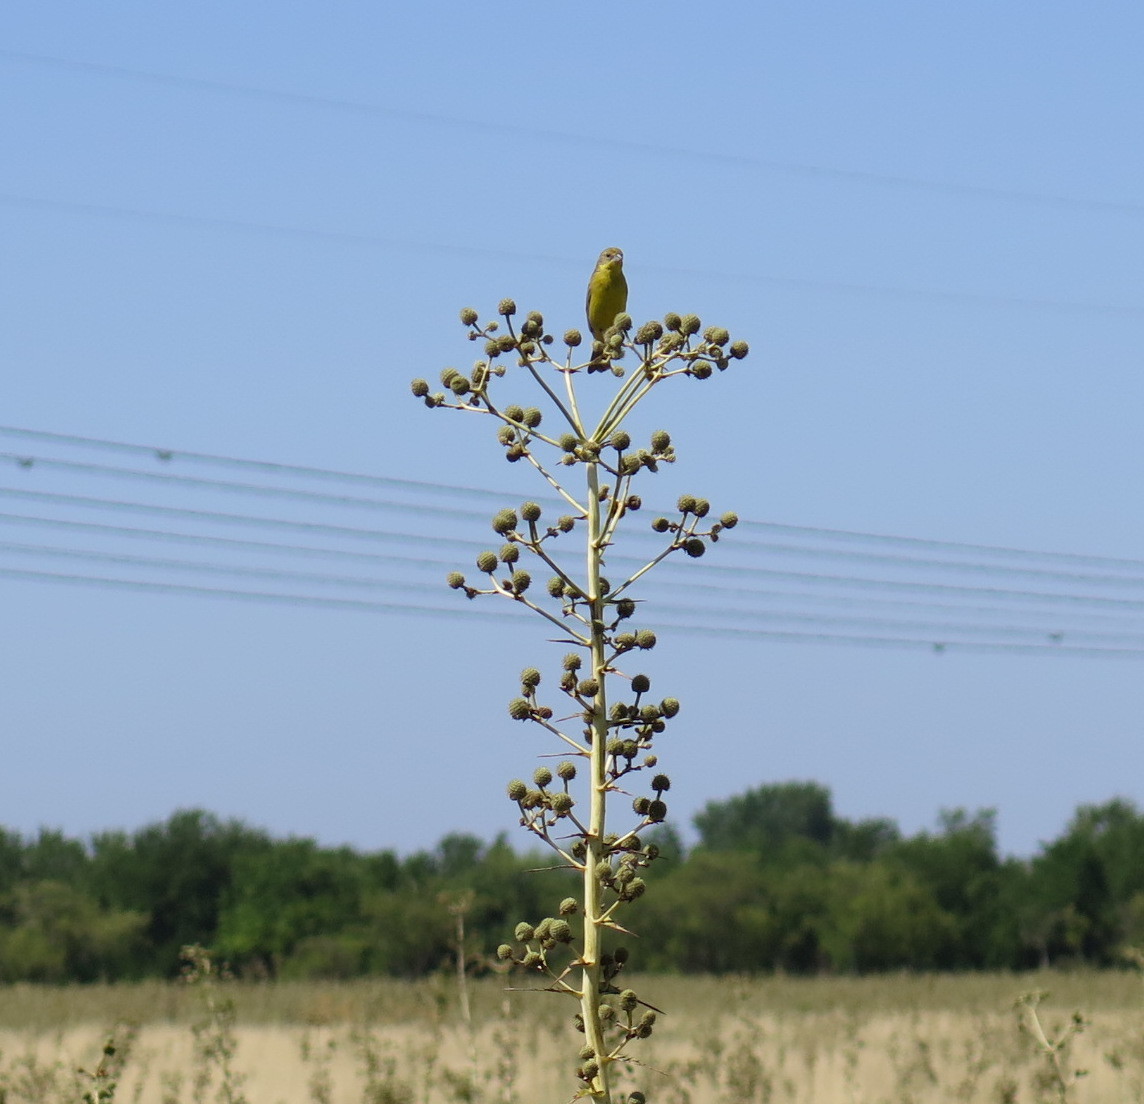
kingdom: Animalia
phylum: Chordata
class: Aves
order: Passeriformes
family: Thraupidae
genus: Sicalis
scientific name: Sicalis luteola
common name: Grassland yellow-finch
